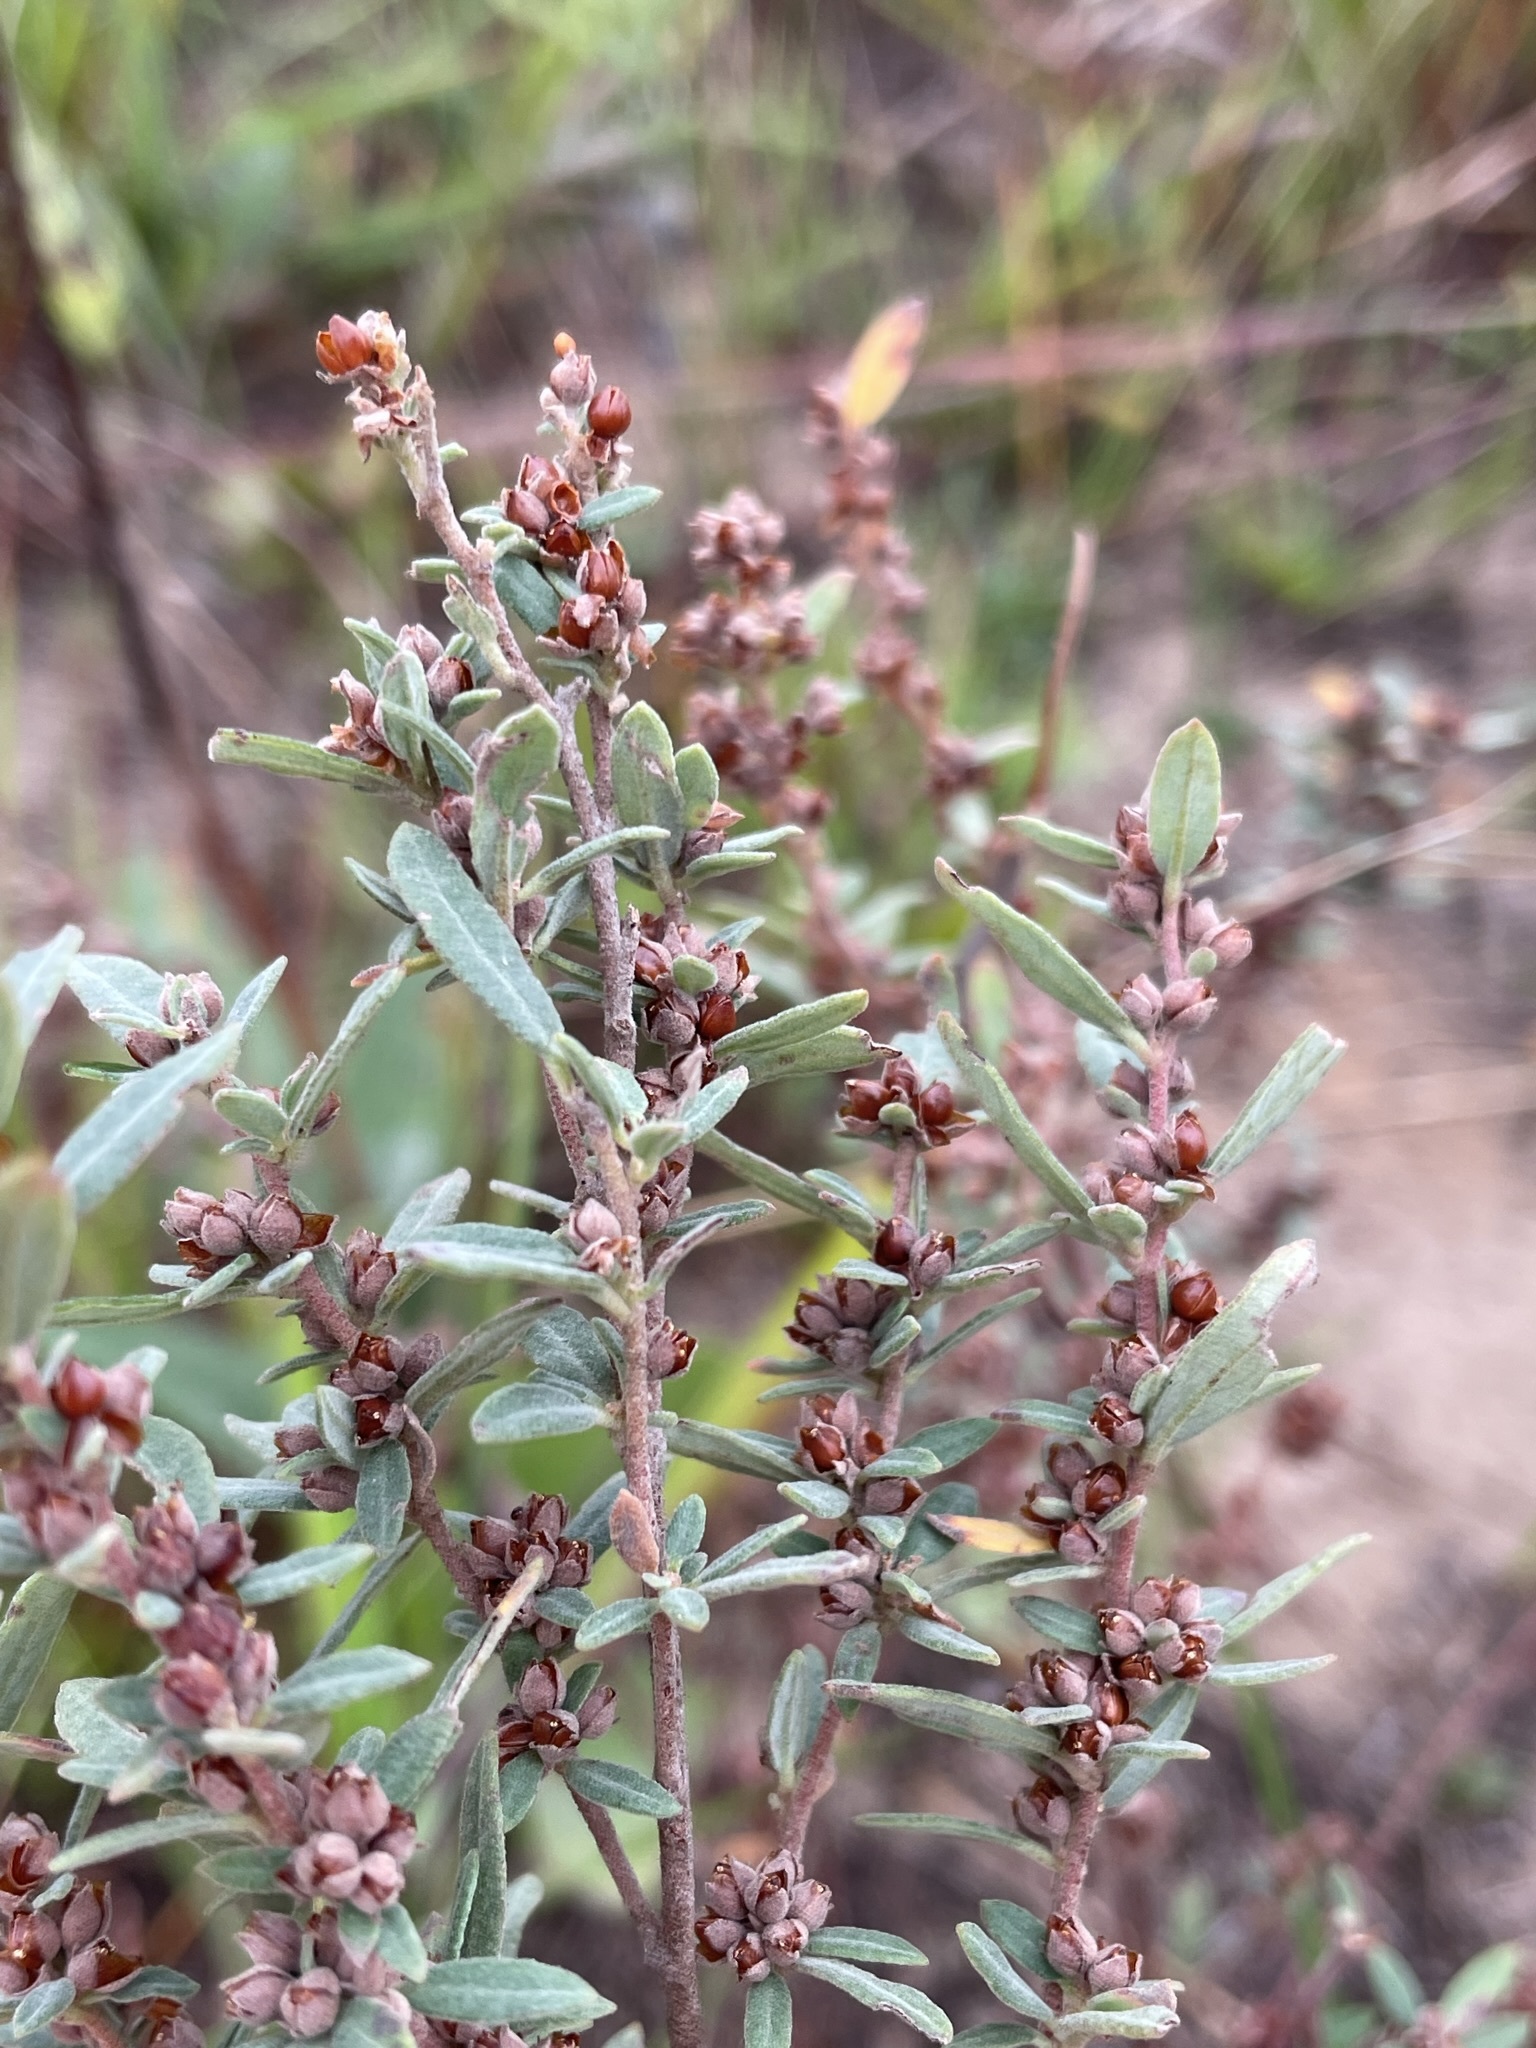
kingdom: Plantae
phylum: Tracheophyta
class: Magnoliopsida
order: Malvales
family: Cistaceae
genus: Crocanthemum
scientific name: Crocanthemum bicknellii
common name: Hoary frostweed
